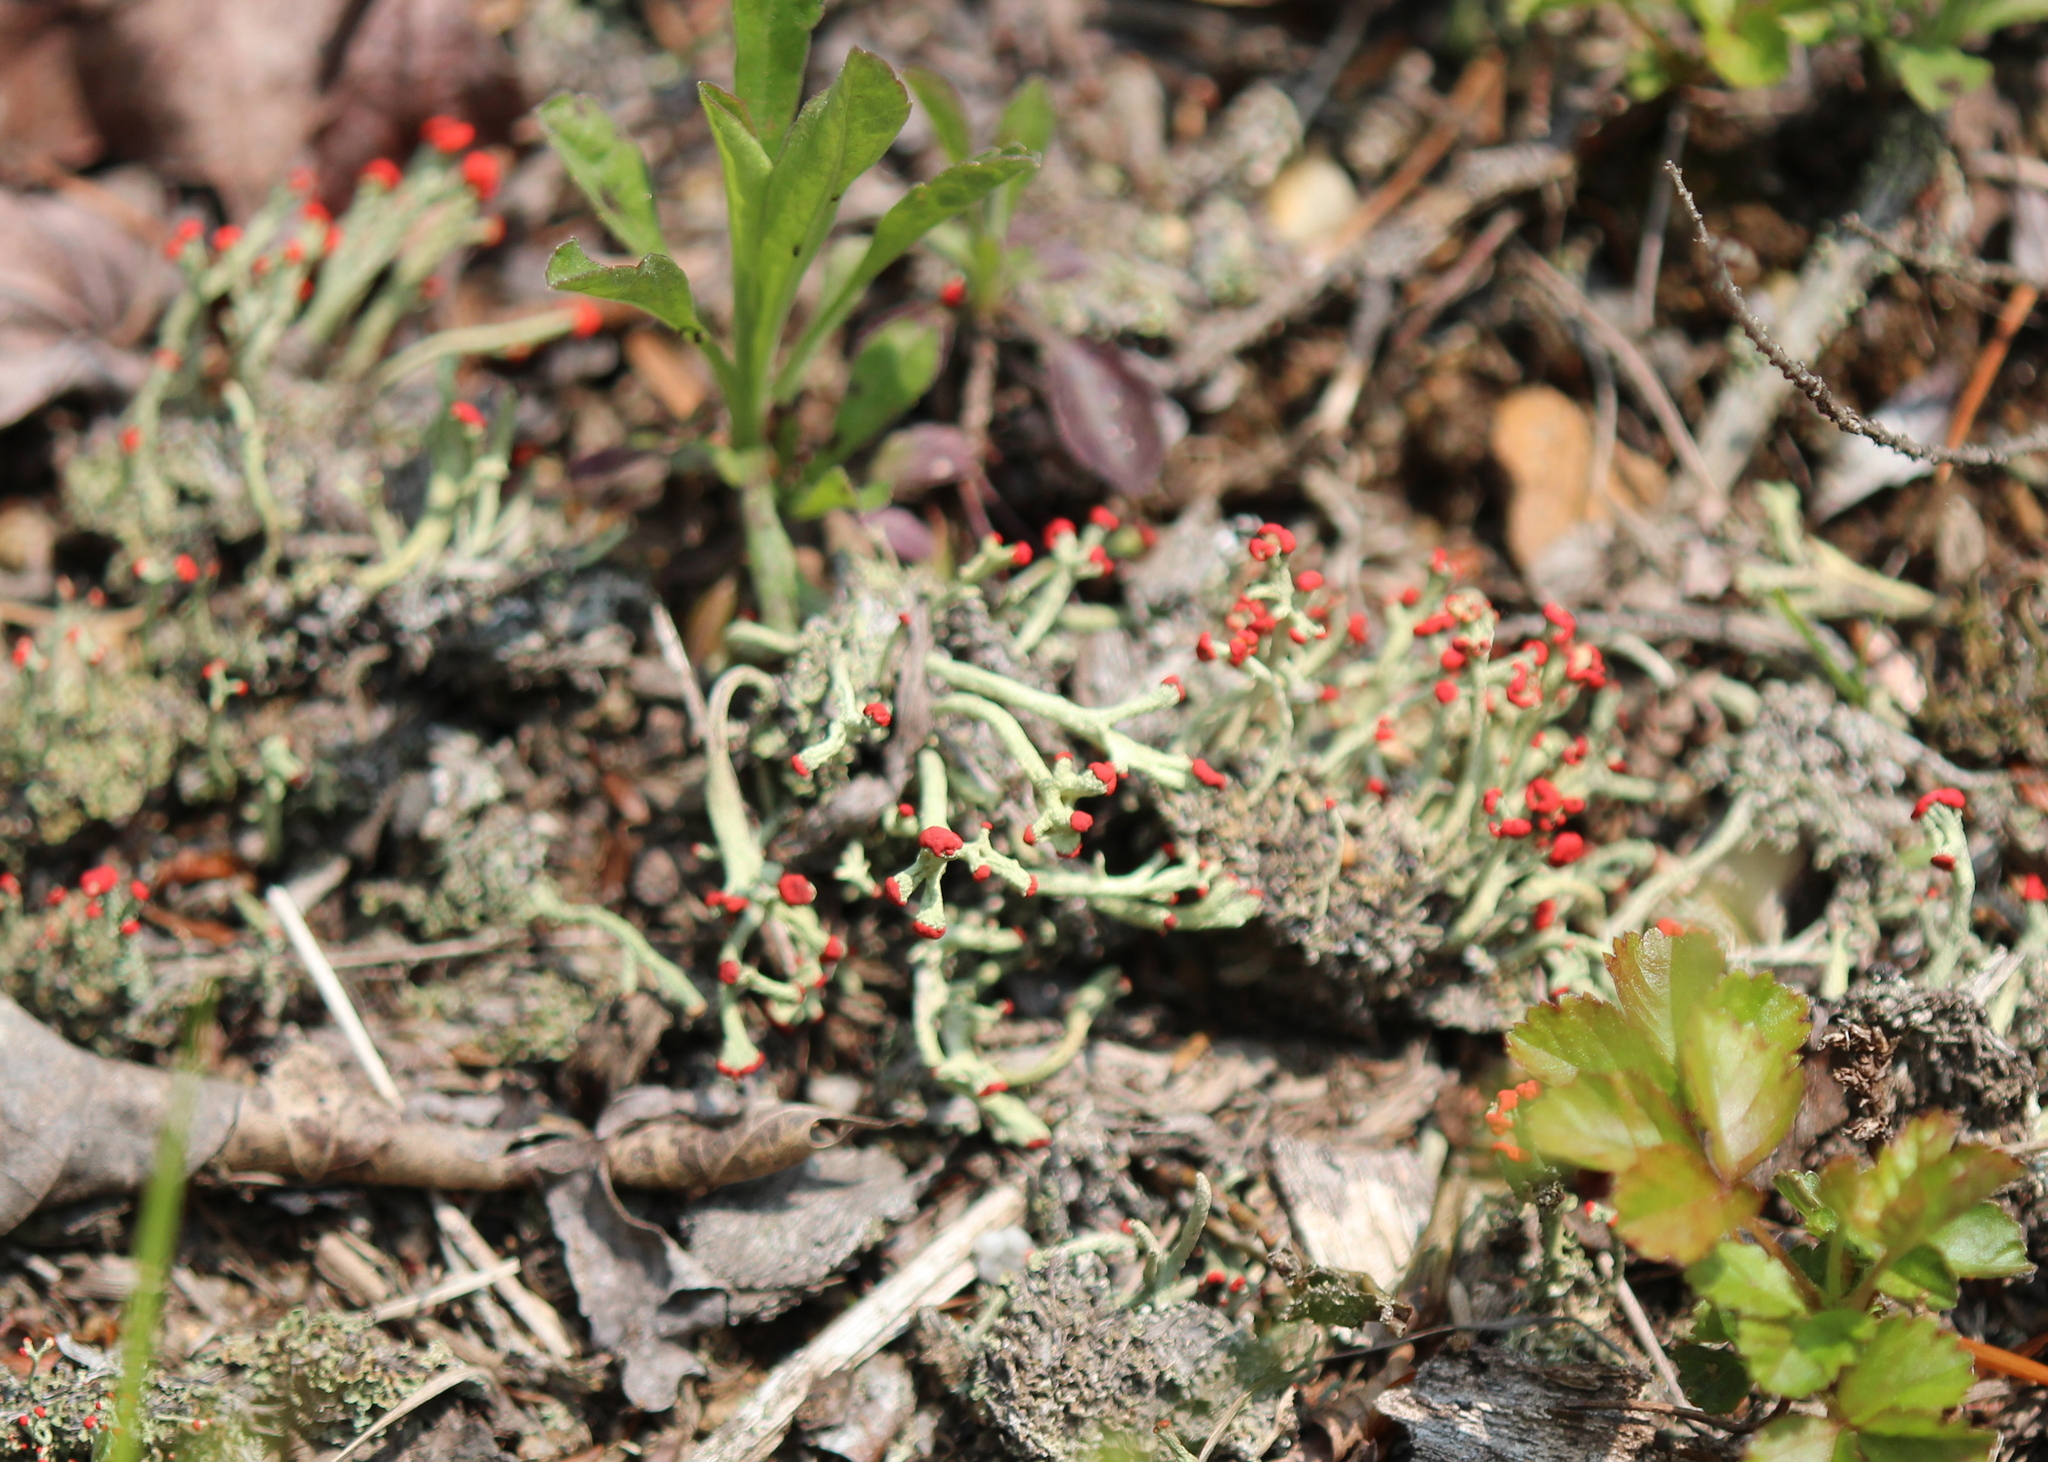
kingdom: Fungi
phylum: Ascomycota
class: Lecanoromycetes
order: Lecanorales
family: Cladoniaceae
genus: Cladonia
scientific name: Cladonia cristatella
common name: British soldier lichen
